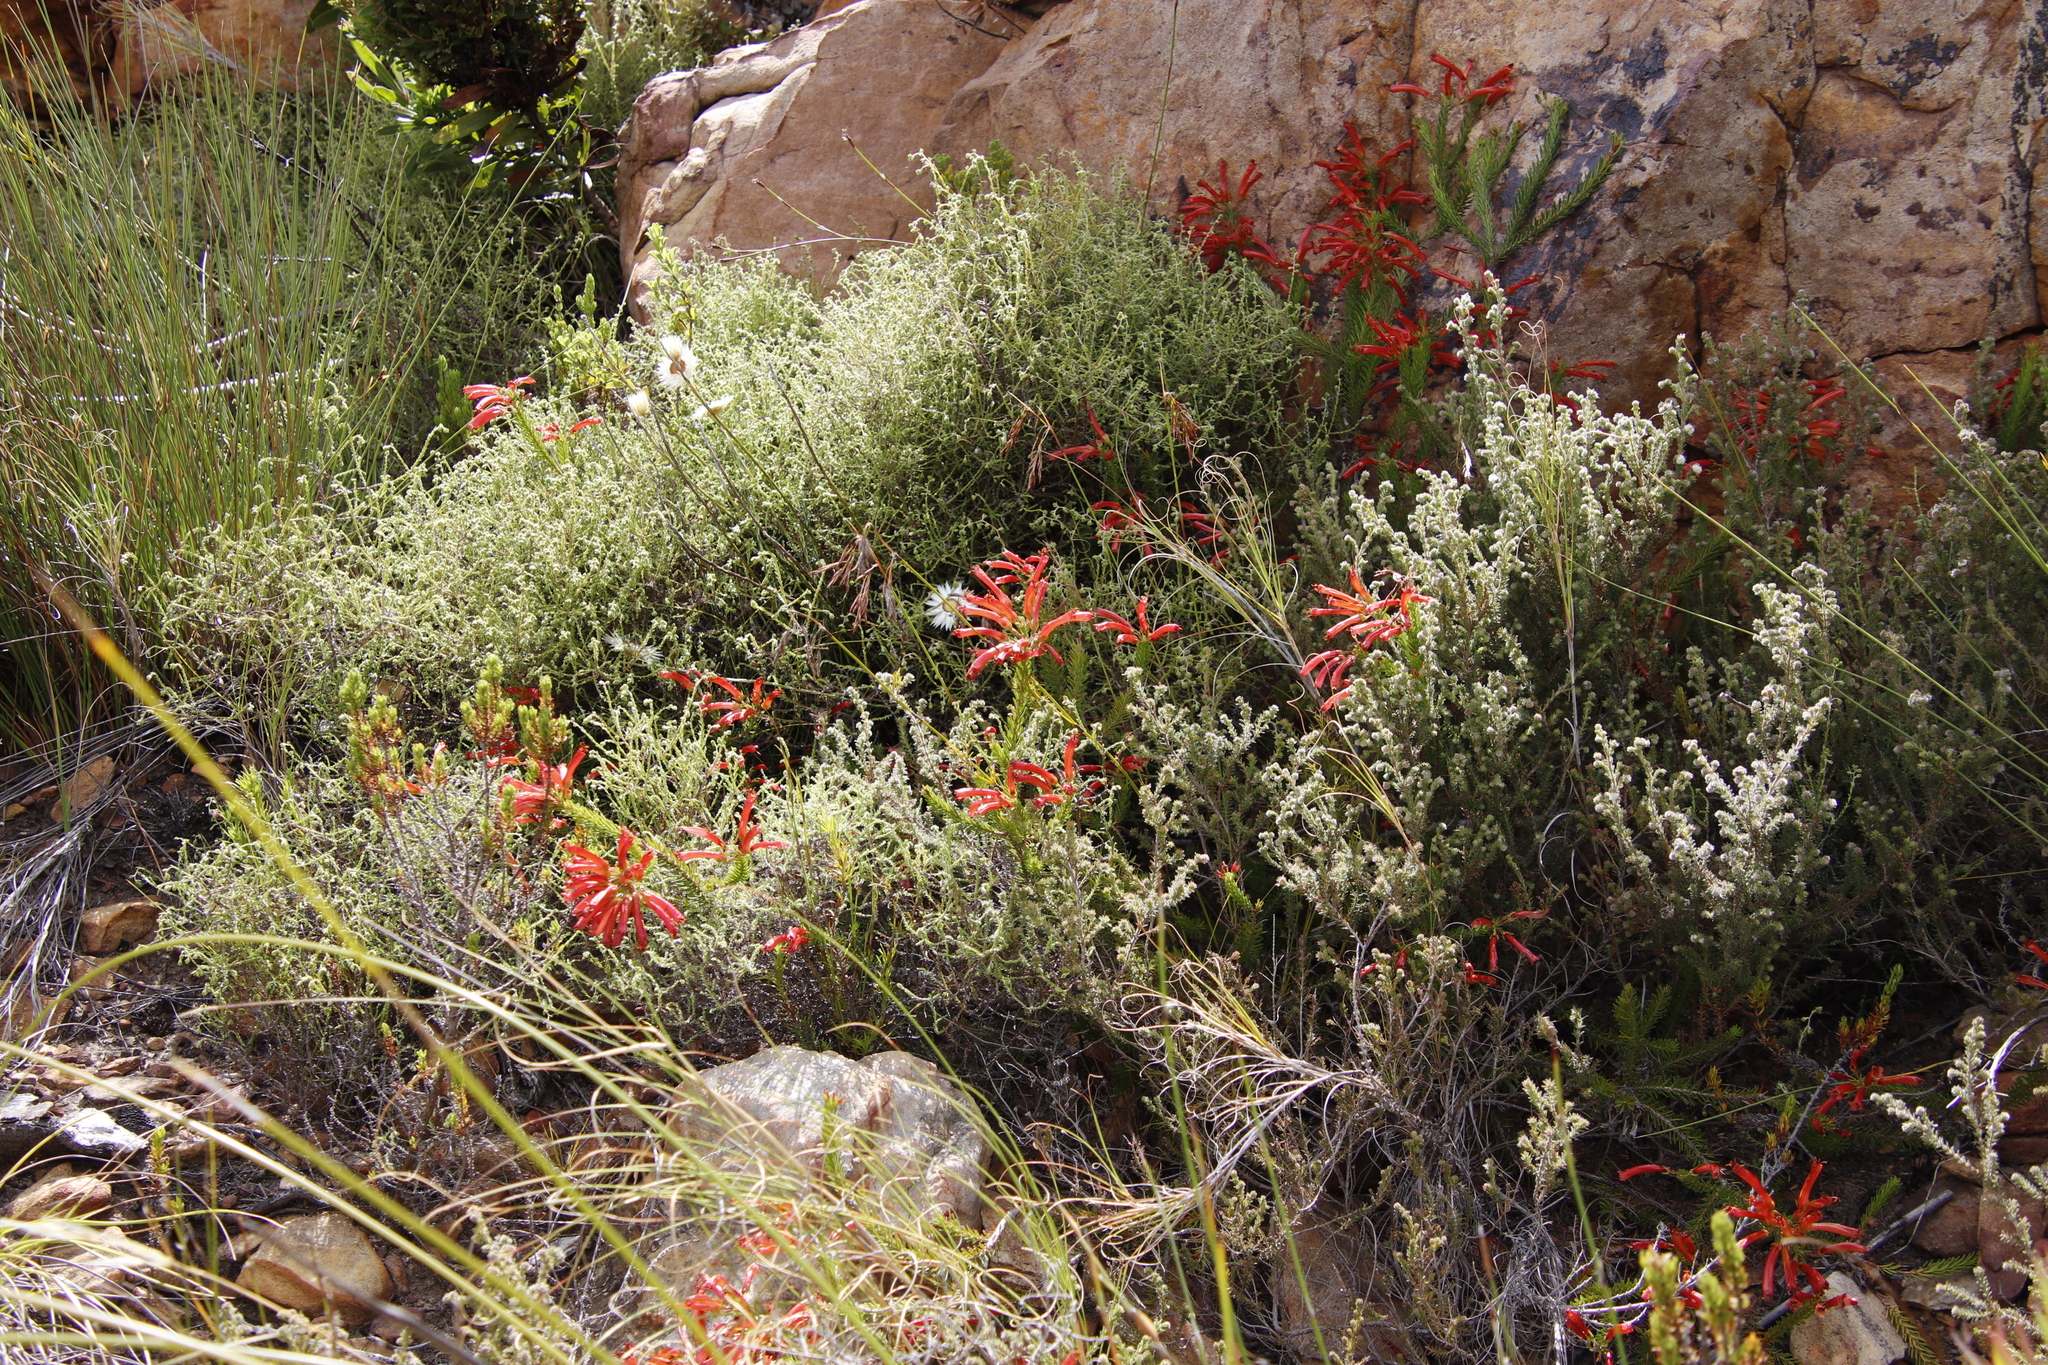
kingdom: Plantae
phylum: Tracheophyta
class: Magnoliopsida
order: Ericales
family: Ericaceae
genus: Erica
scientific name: Erica nevillei
